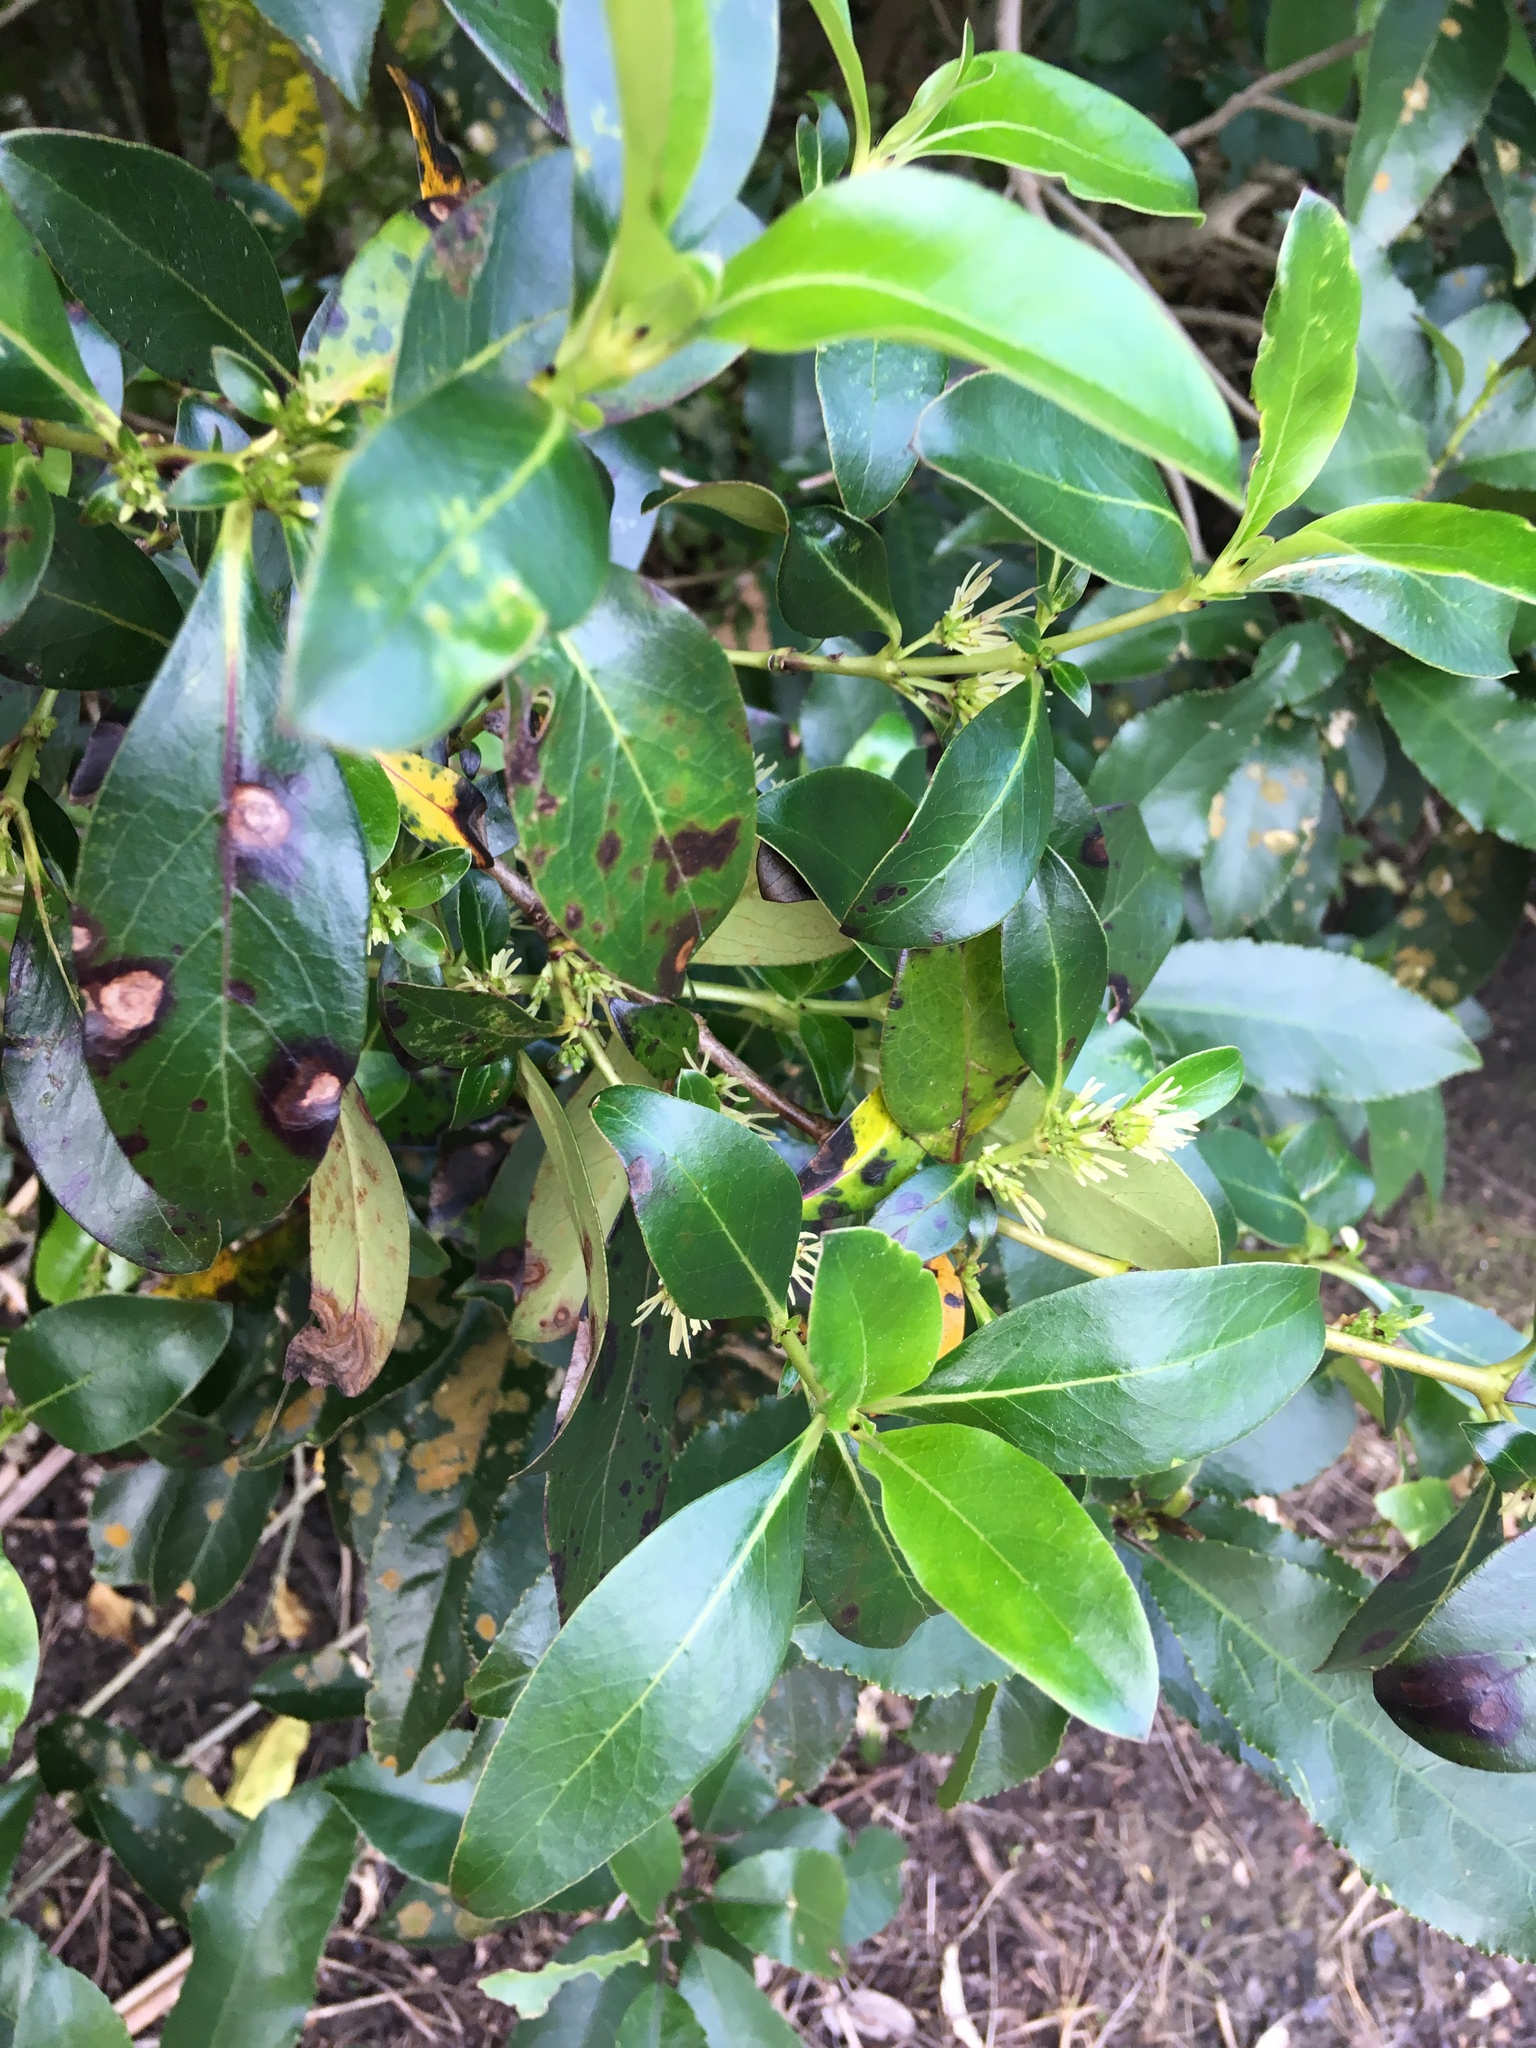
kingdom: Plantae
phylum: Tracheophyta
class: Magnoliopsida
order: Gentianales
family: Rubiaceae
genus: Coprosma
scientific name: Coprosma robusta
